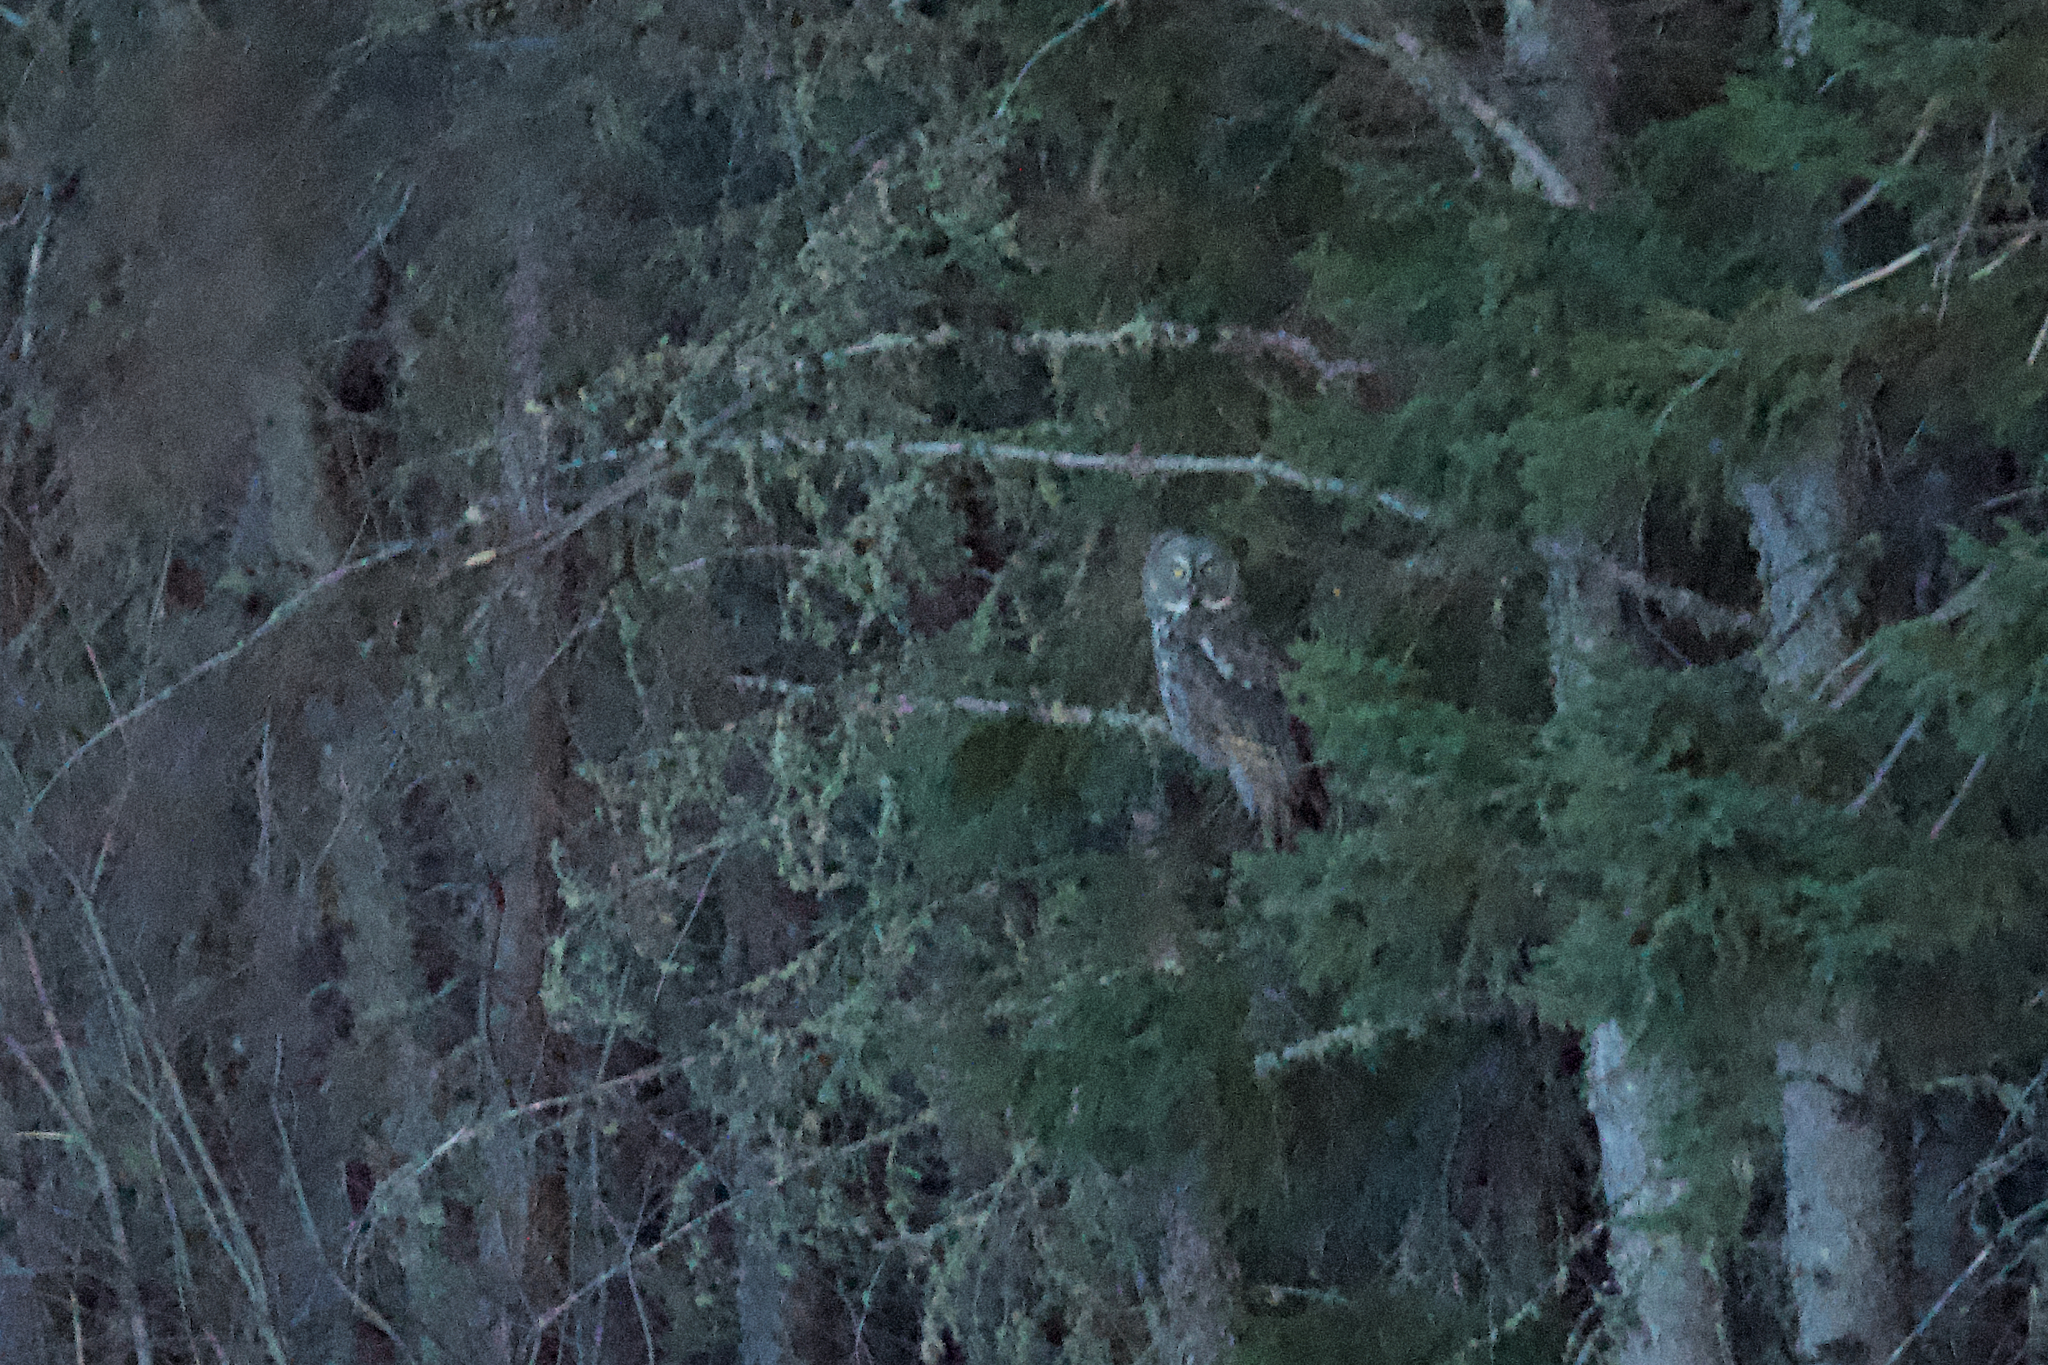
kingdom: Animalia
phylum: Chordata
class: Aves
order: Strigiformes
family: Strigidae
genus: Strix
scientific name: Strix nebulosa
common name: Great grey owl
